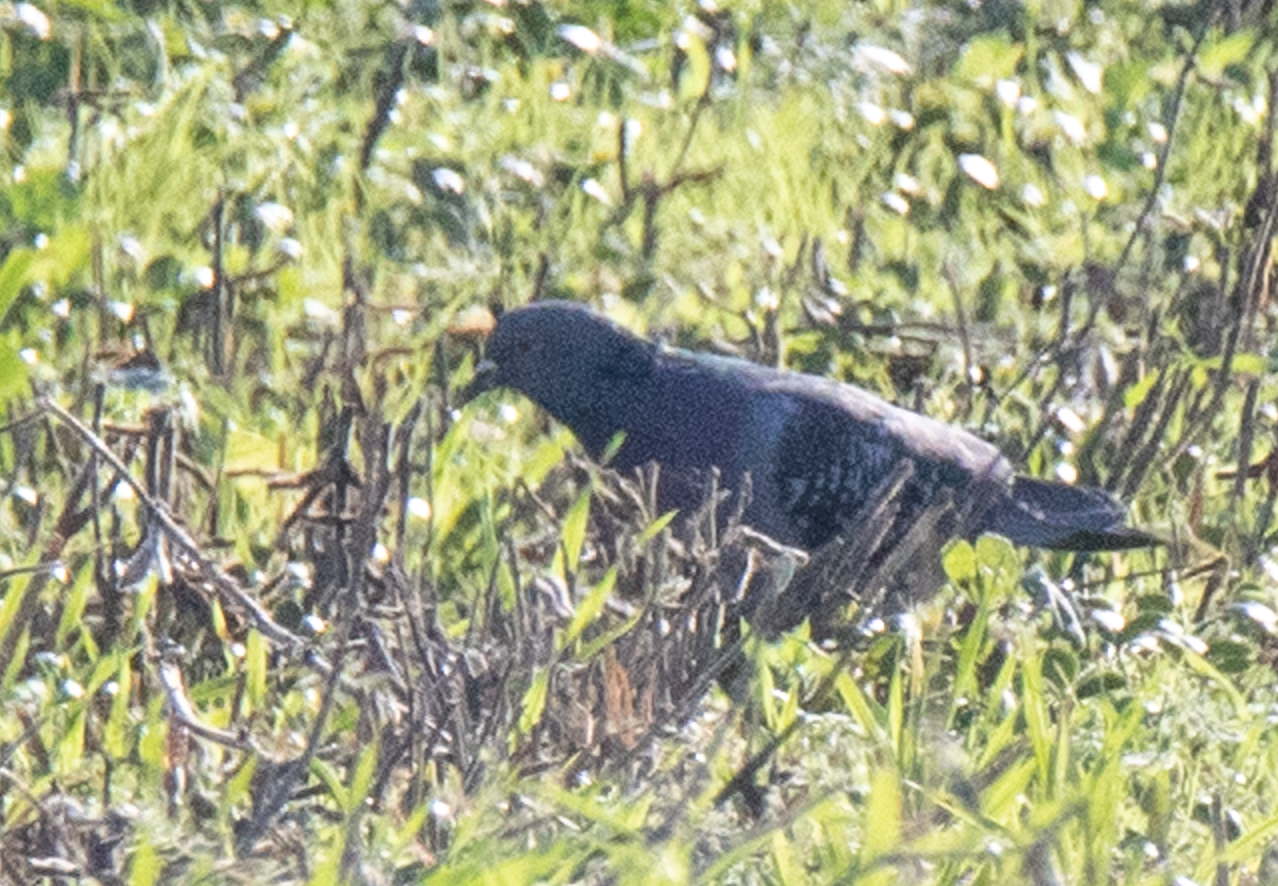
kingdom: Animalia
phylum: Chordata
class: Aves
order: Columbiformes
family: Columbidae
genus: Columba
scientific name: Columba livia
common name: Rock pigeon
